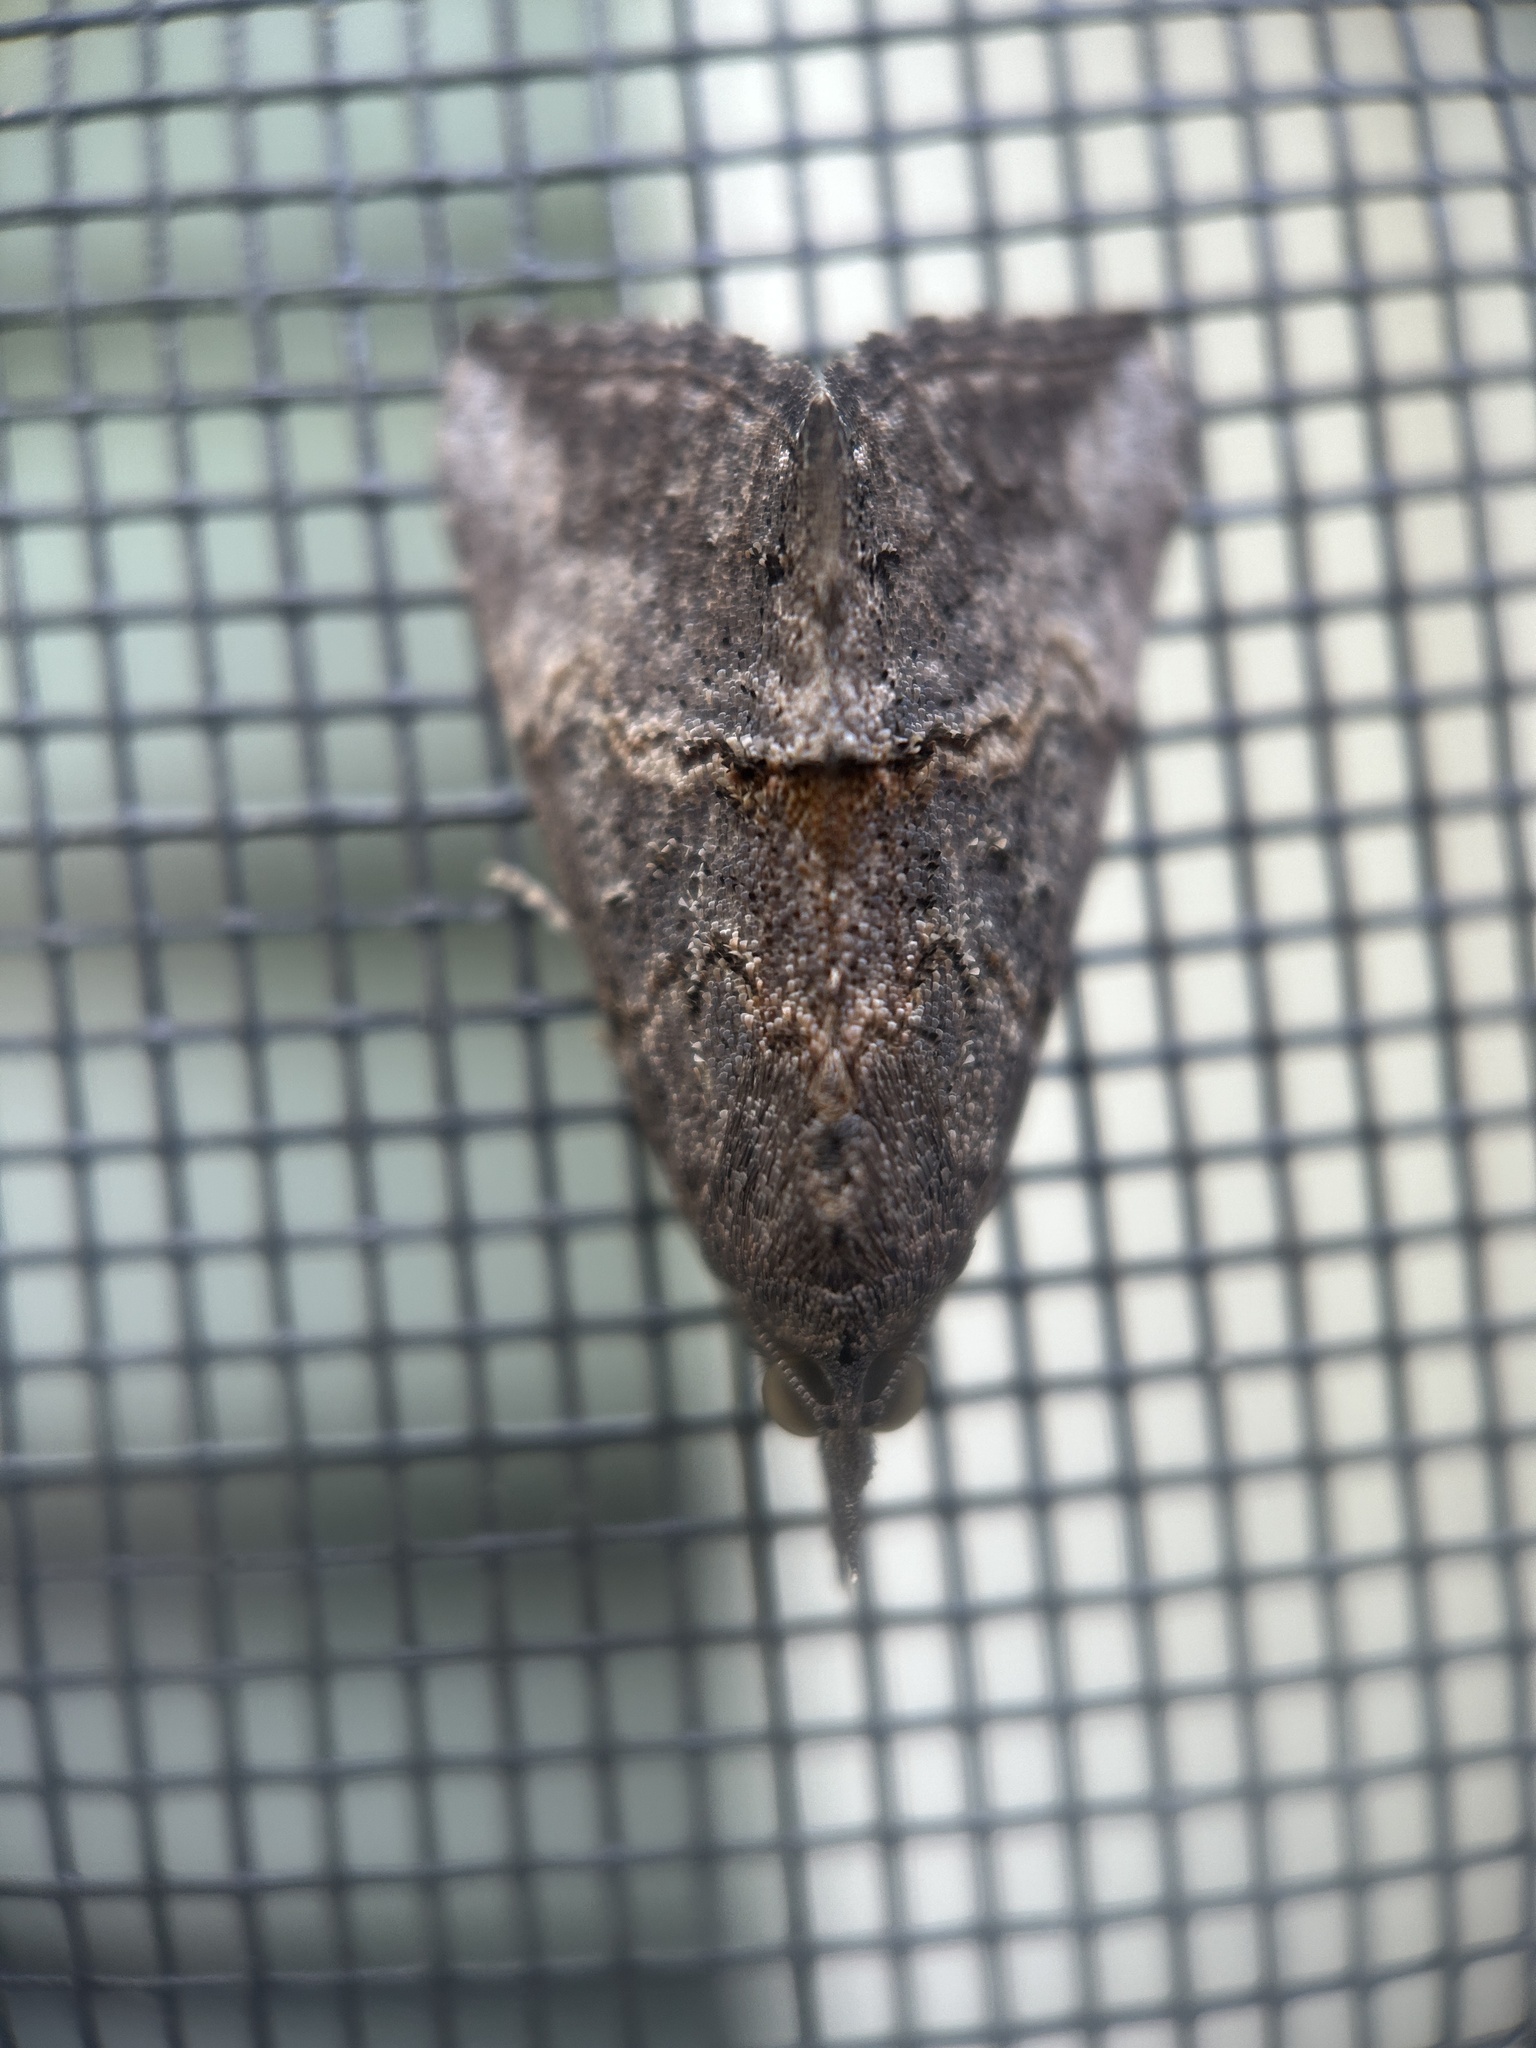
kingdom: Animalia
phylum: Arthropoda
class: Insecta
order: Lepidoptera
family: Erebidae
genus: Hypena
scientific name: Hypena scabra
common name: Green cloverworm
